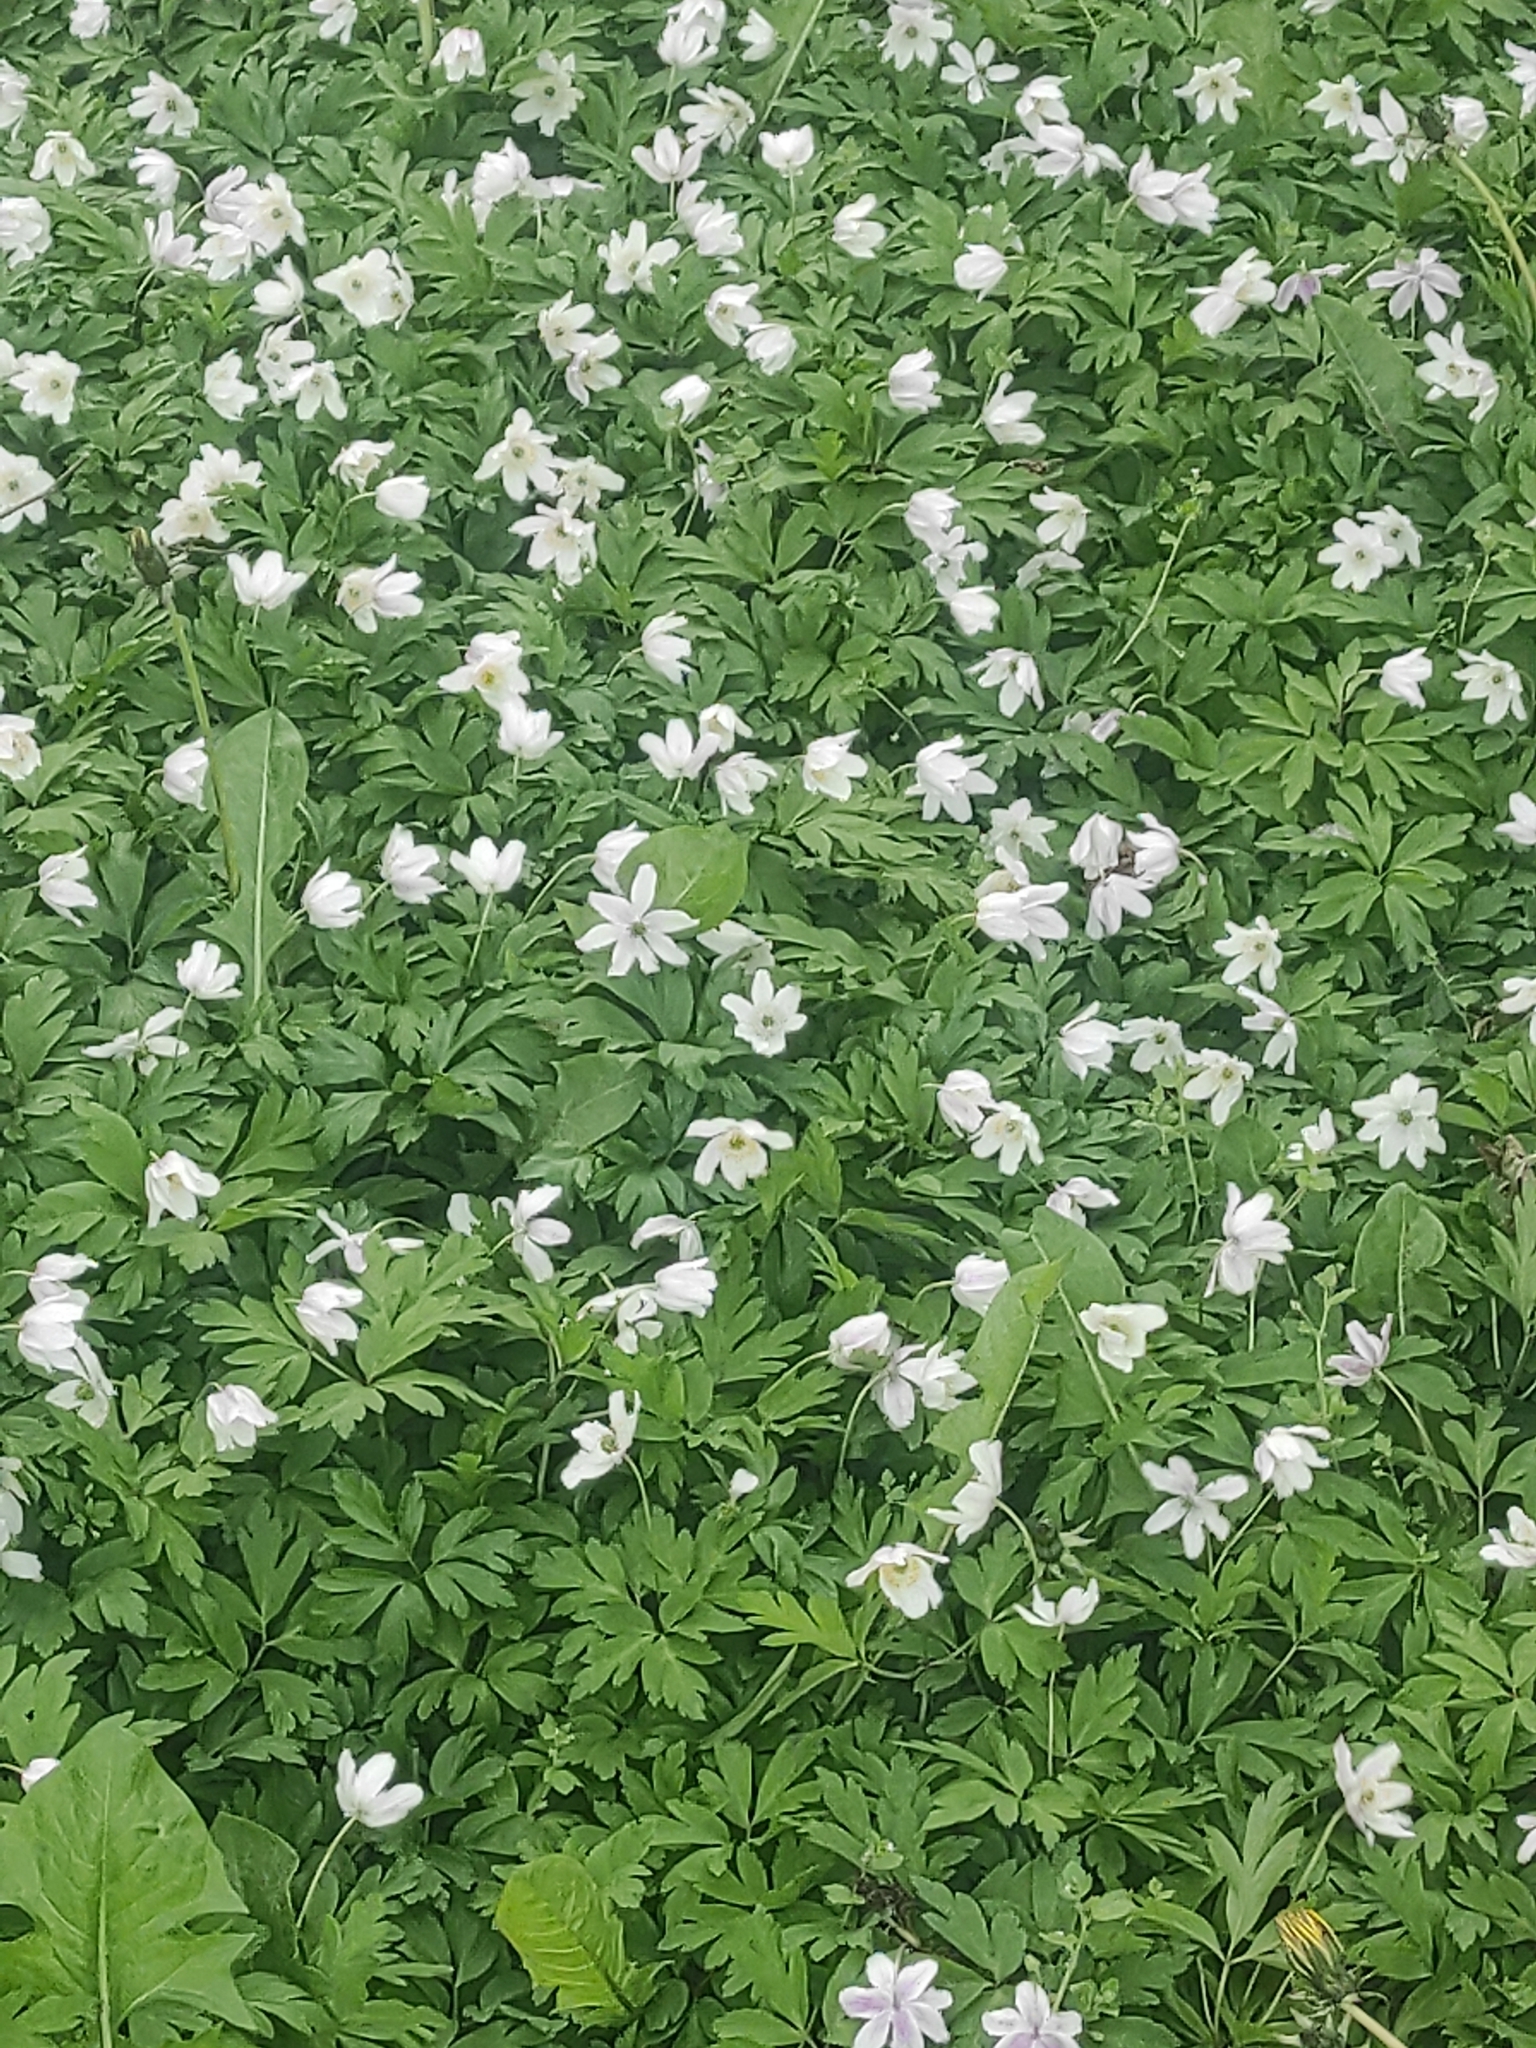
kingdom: Plantae
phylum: Tracheophyta
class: Magnoliopsida
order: Ranunculales
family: Ranunculaceae
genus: Anemone
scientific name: Anemone nemorosa
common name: Wood anemone
